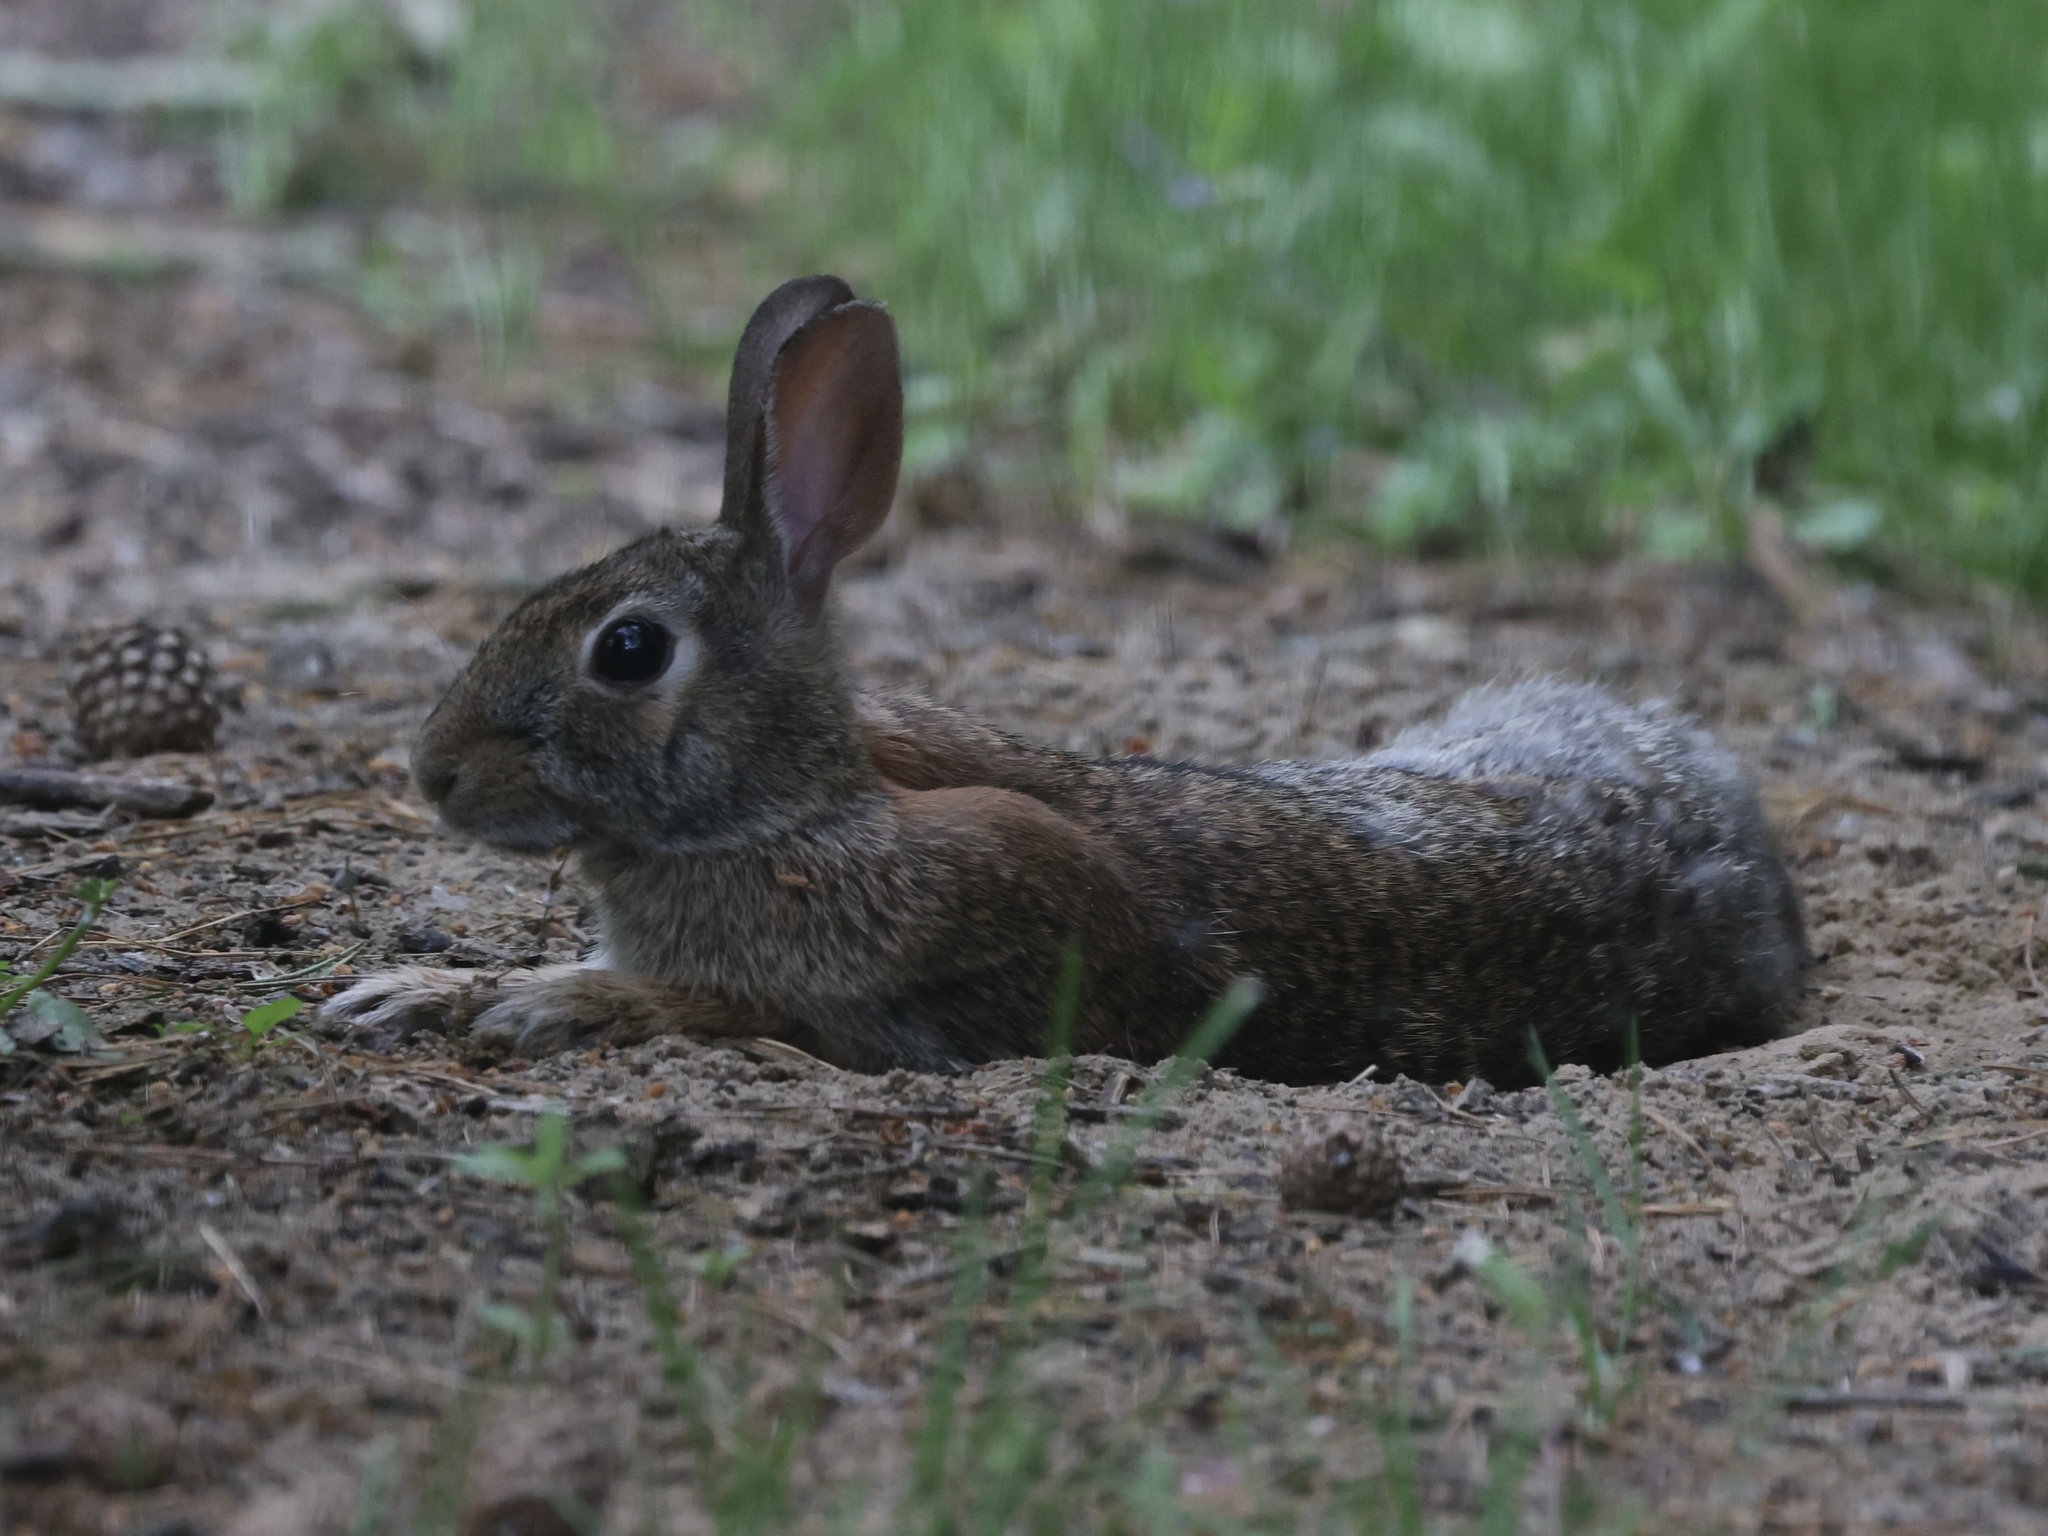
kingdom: Animalia
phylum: Chordata
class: Mammalia
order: Lagomorpha
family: Leporidae
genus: Sylvilagus
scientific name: Sylvilagus floridanus
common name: Eastern cottontail
